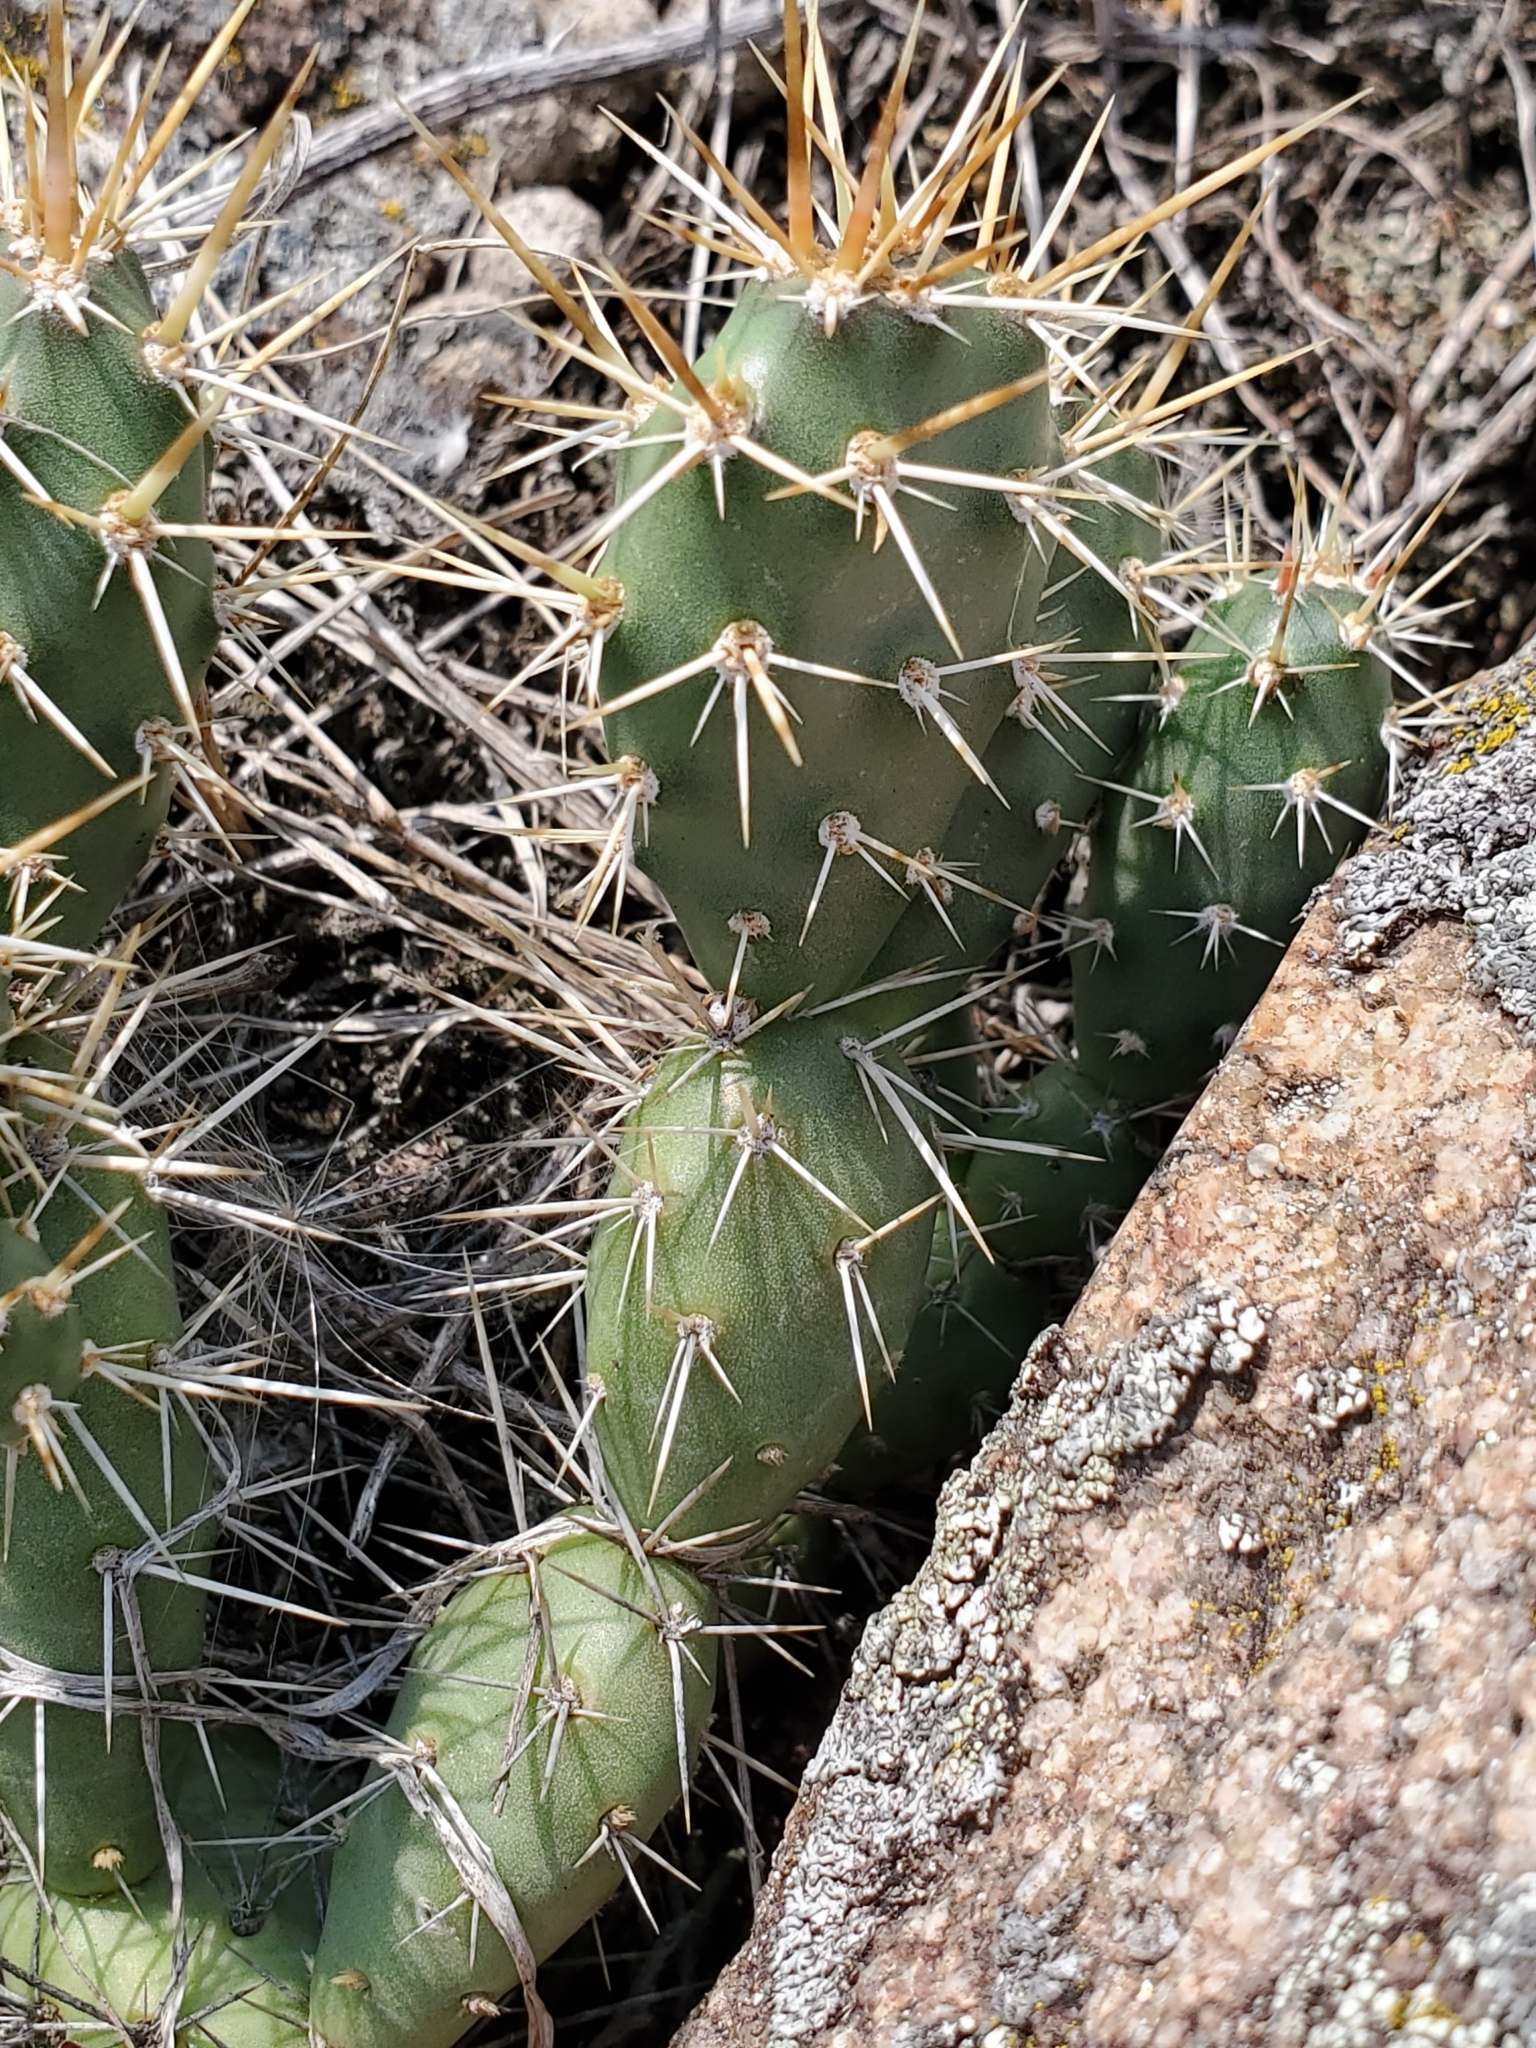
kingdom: Plantae
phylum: Tracheophyta
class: Magnoliopsida
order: Caryophyllales
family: Cactaceae
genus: Opuntia
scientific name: Opuntia fragilis
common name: Brittle cactus
